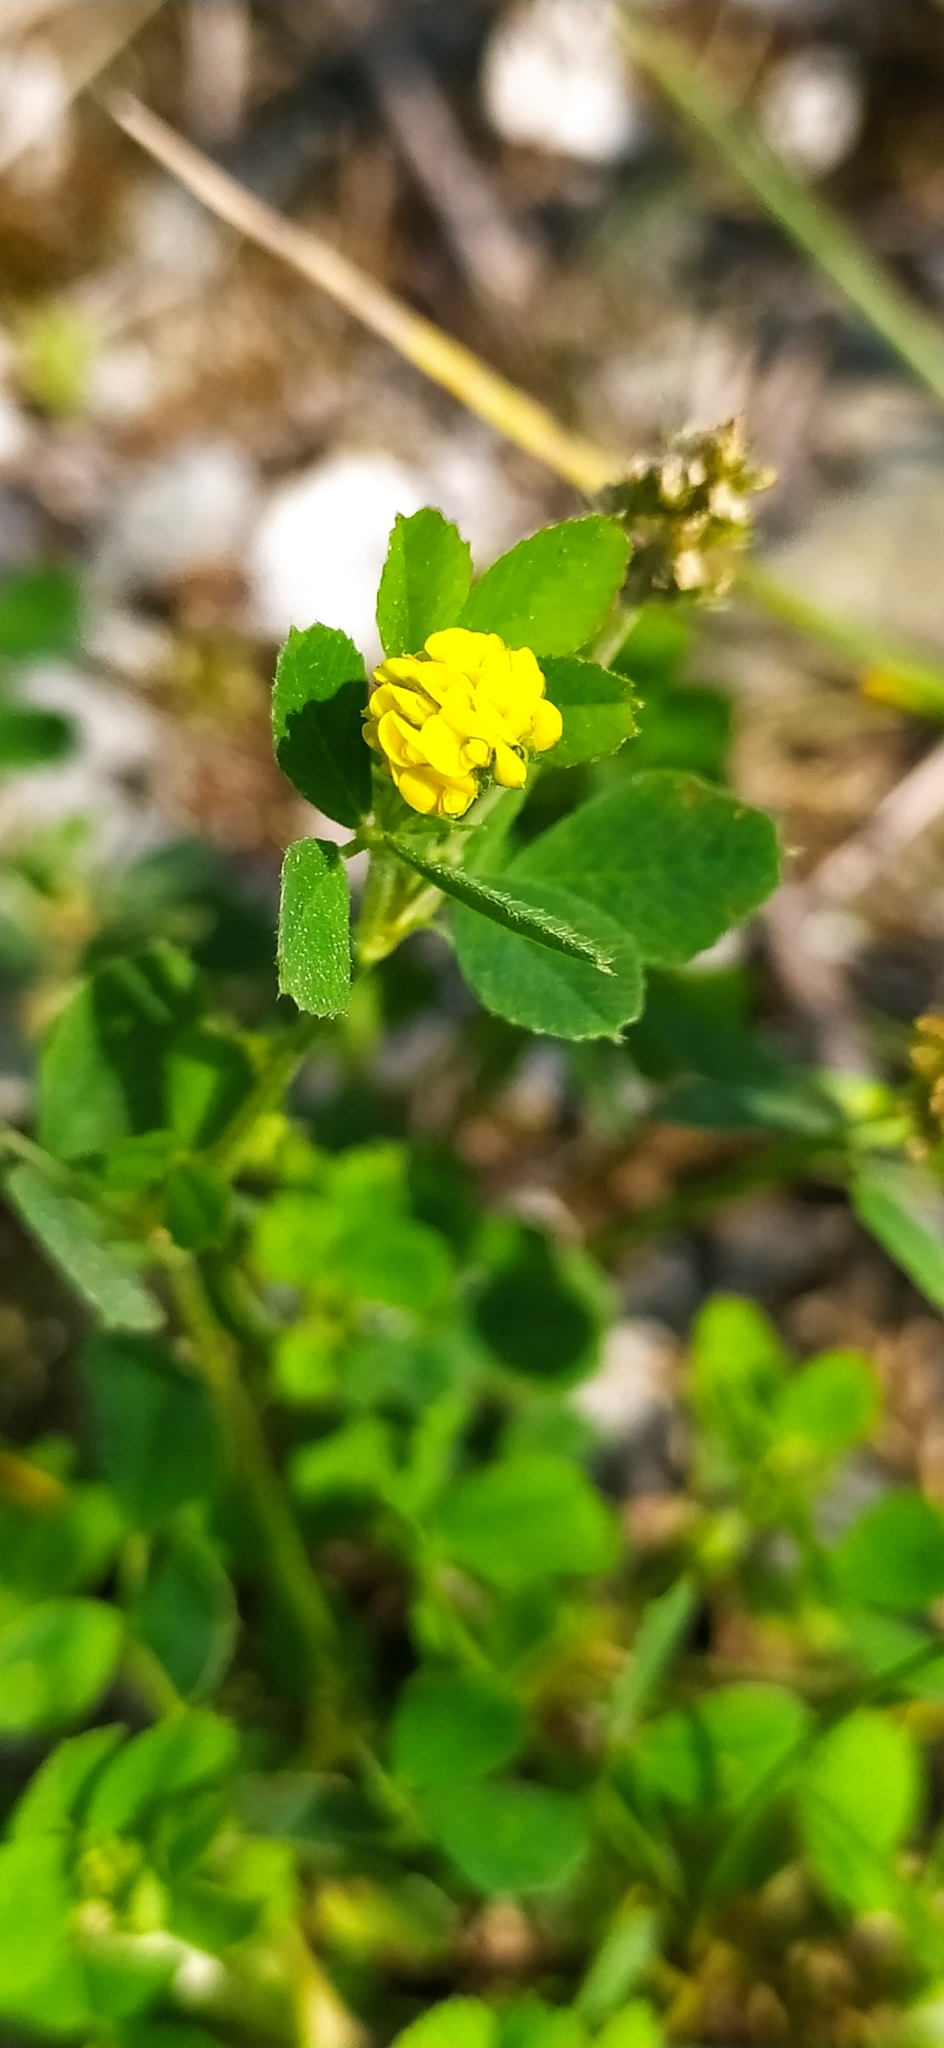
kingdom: Plantae
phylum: Tracheophyta
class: Magnoliopsida
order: Fabales
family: Fabaceae
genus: Medicago
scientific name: Medicago lupulina
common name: Black medick
